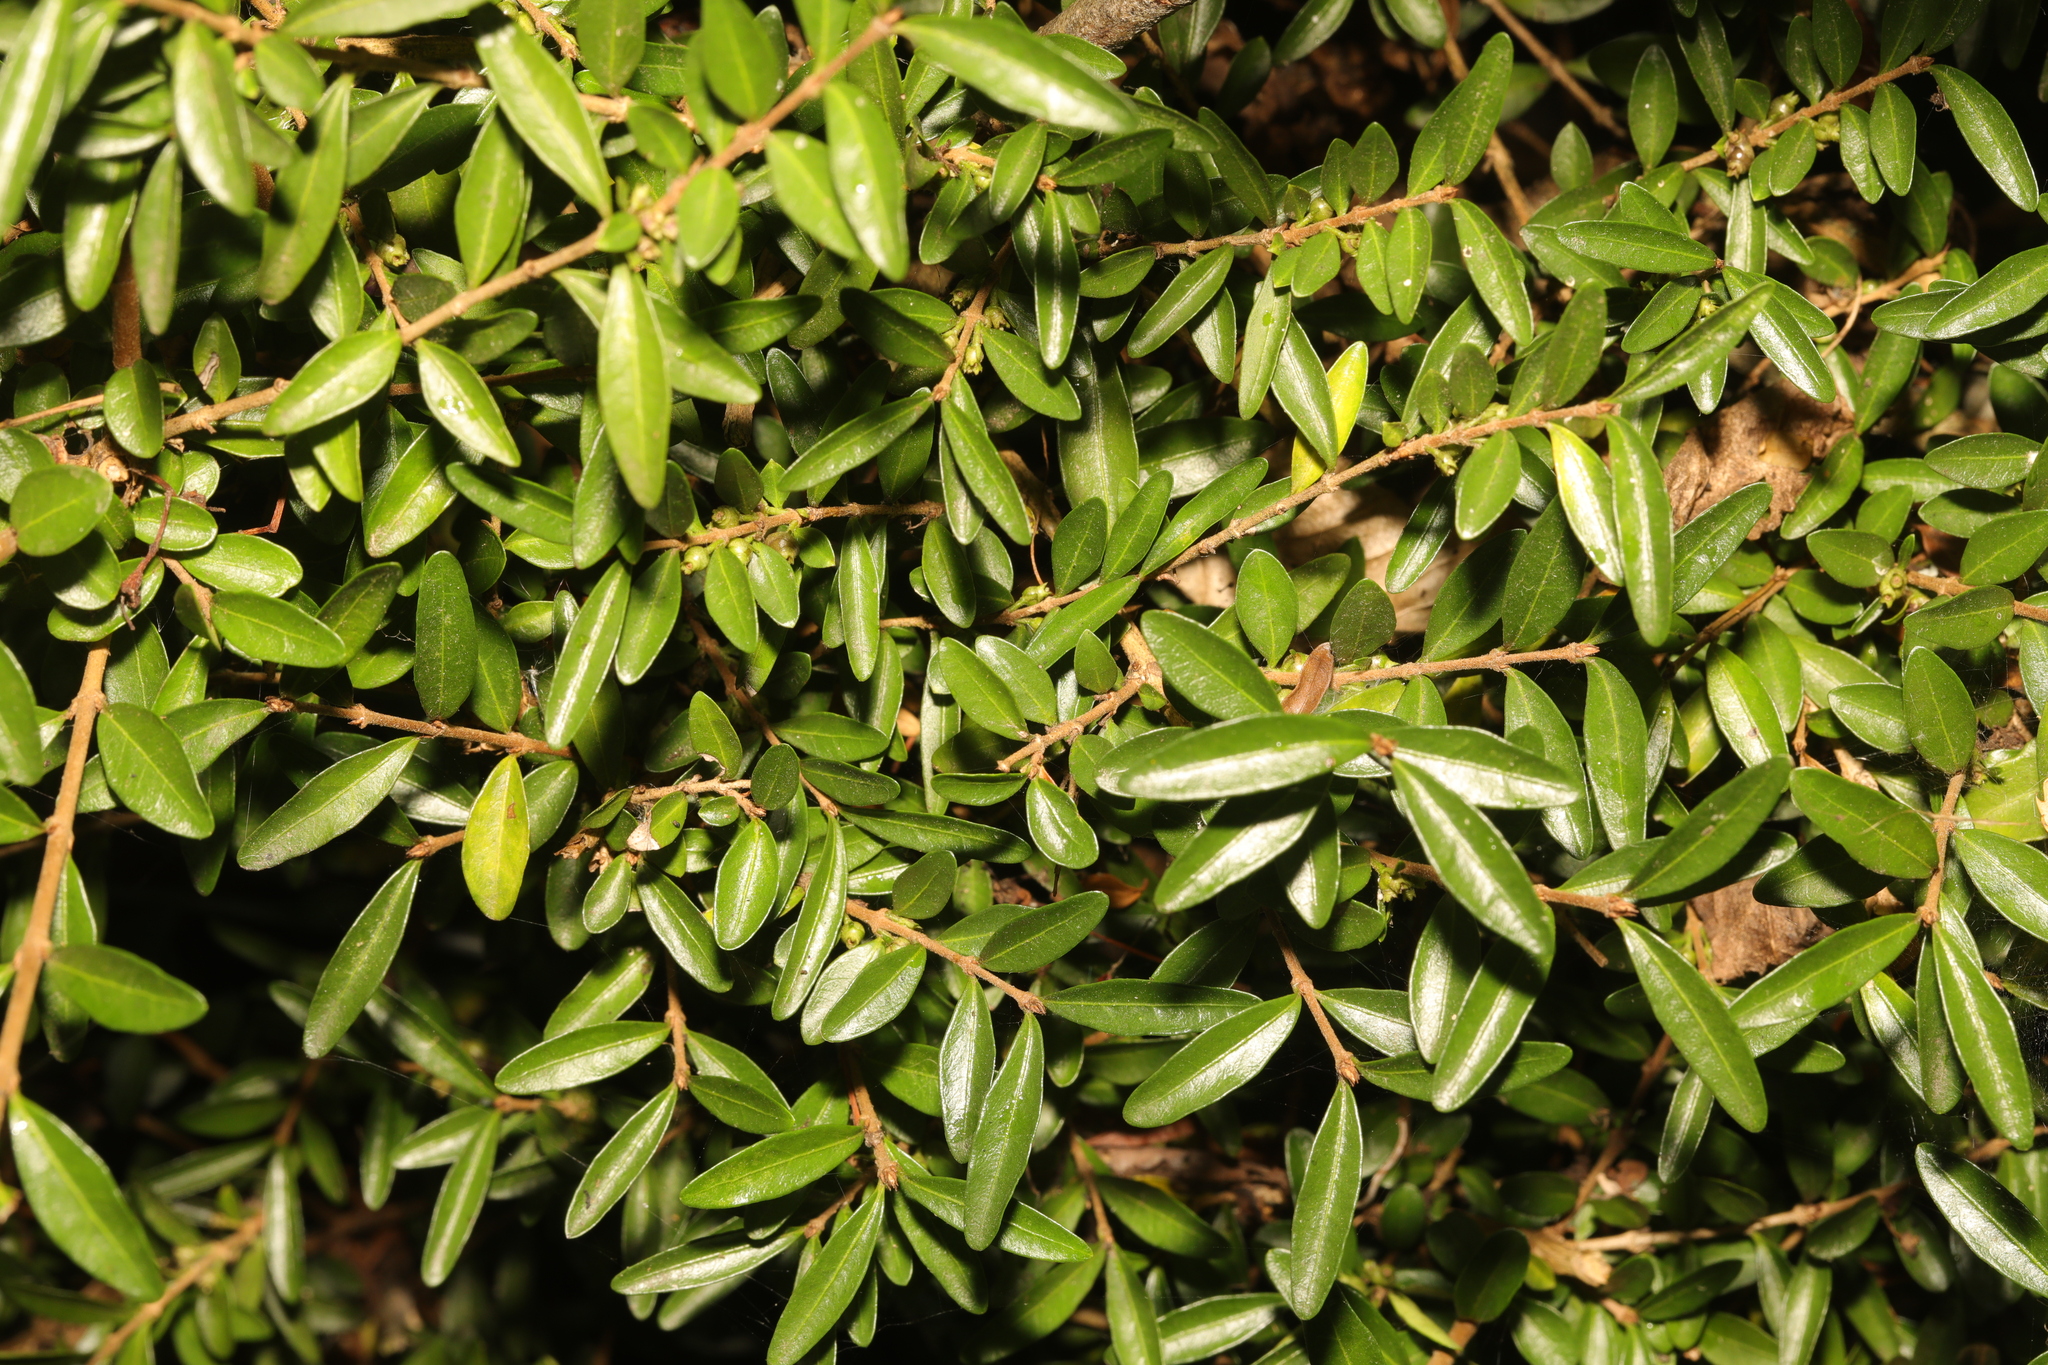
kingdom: Plantae
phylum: Tracheophyta
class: Magnoliopsida
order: Dipsacales
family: Caprifoliaceae
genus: Lonicera
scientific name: Lonicera ligustrina
